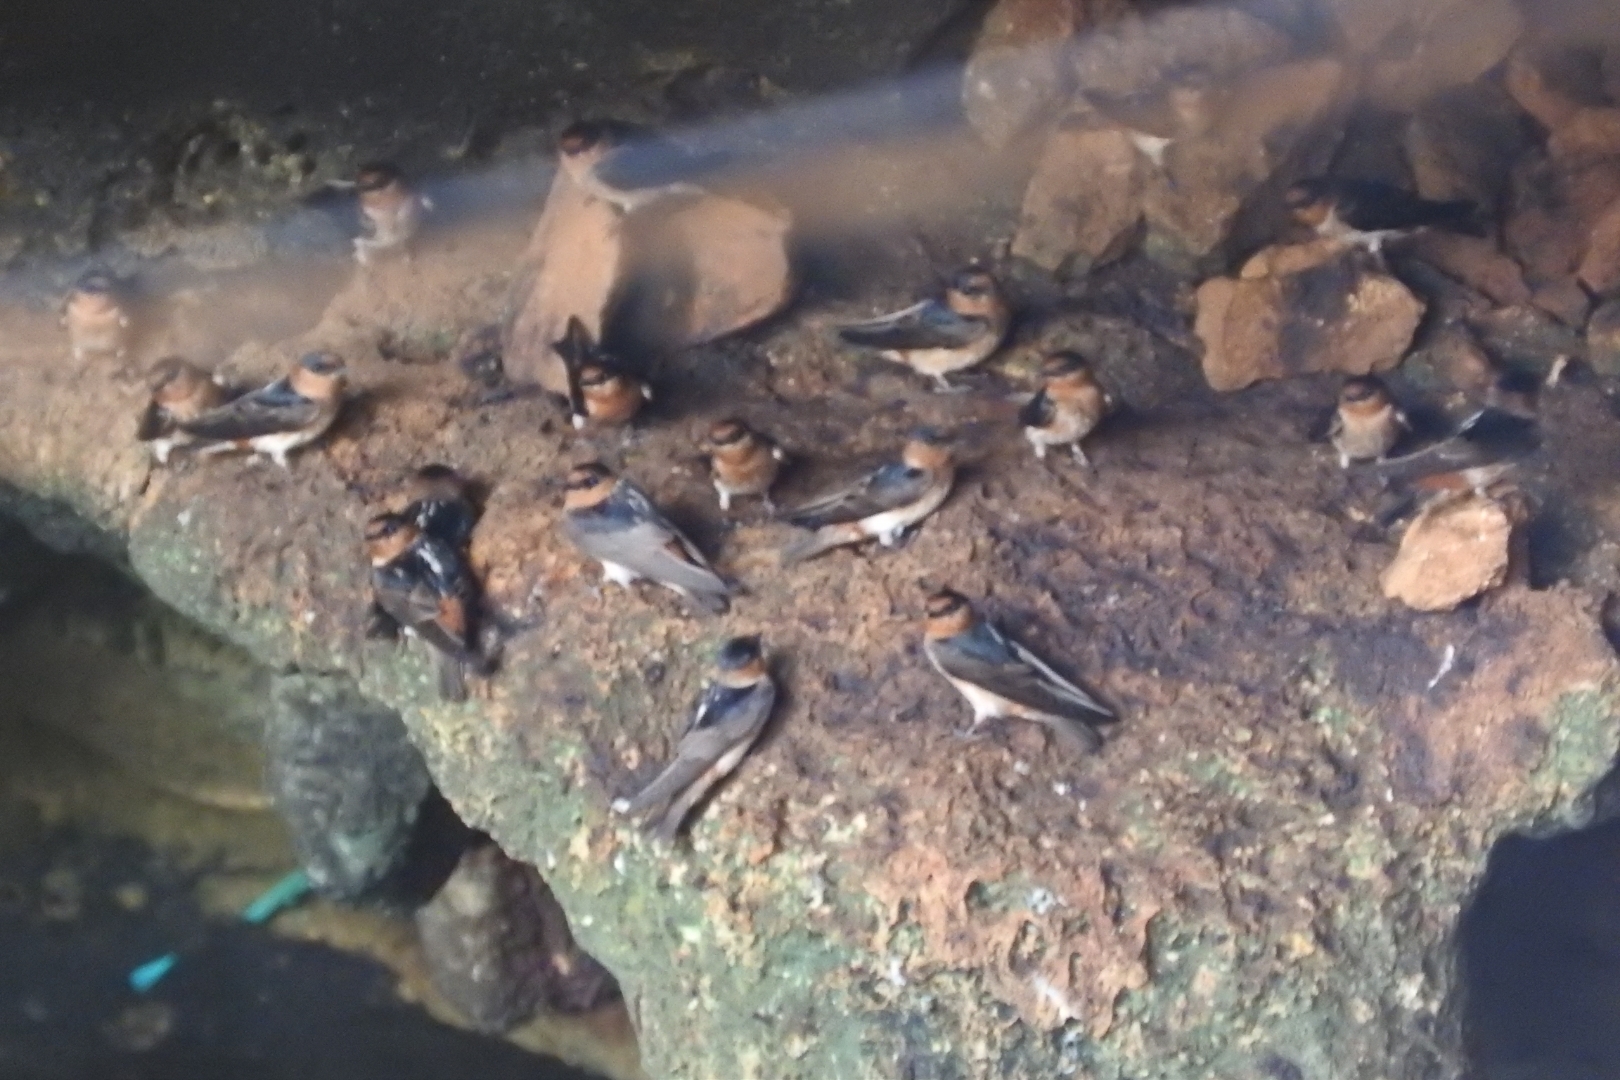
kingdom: Animalia
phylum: Chordata
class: Aves
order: Passeriformes
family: Hirundinidae
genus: Petrochelidon
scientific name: Petrochelidon fulva
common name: Cave swallow
